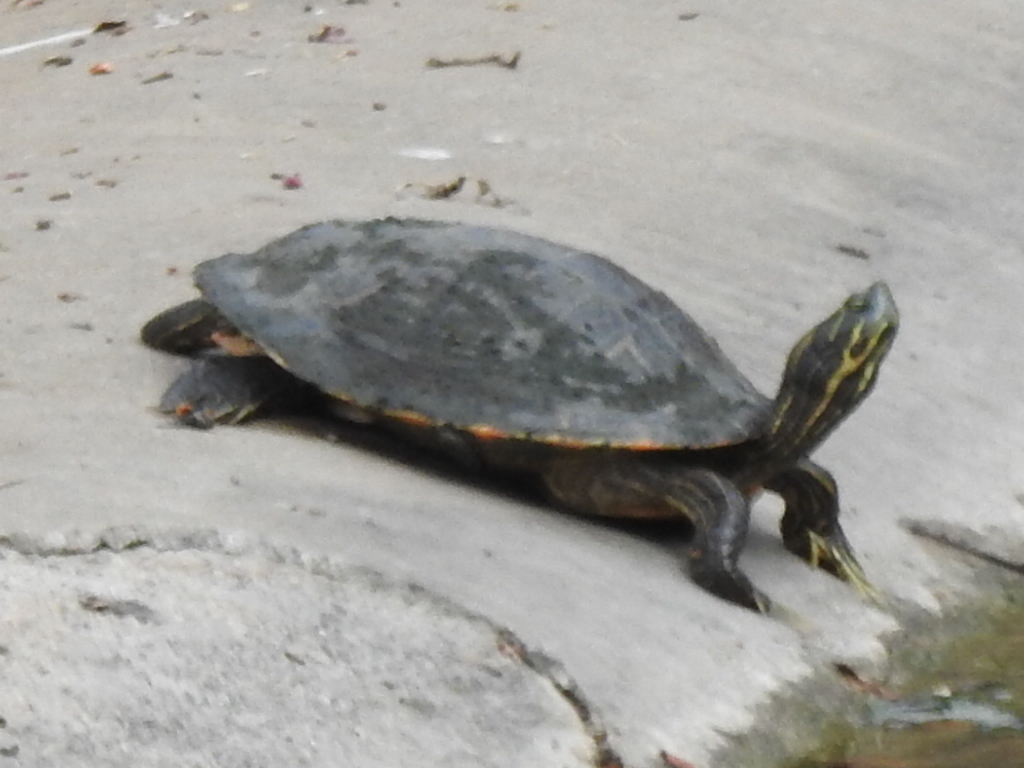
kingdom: Animalia
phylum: Chordata
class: Testudines
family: Emydidae
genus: Pseudemys
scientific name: Pseudemys concinna
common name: Eastern river cooter
